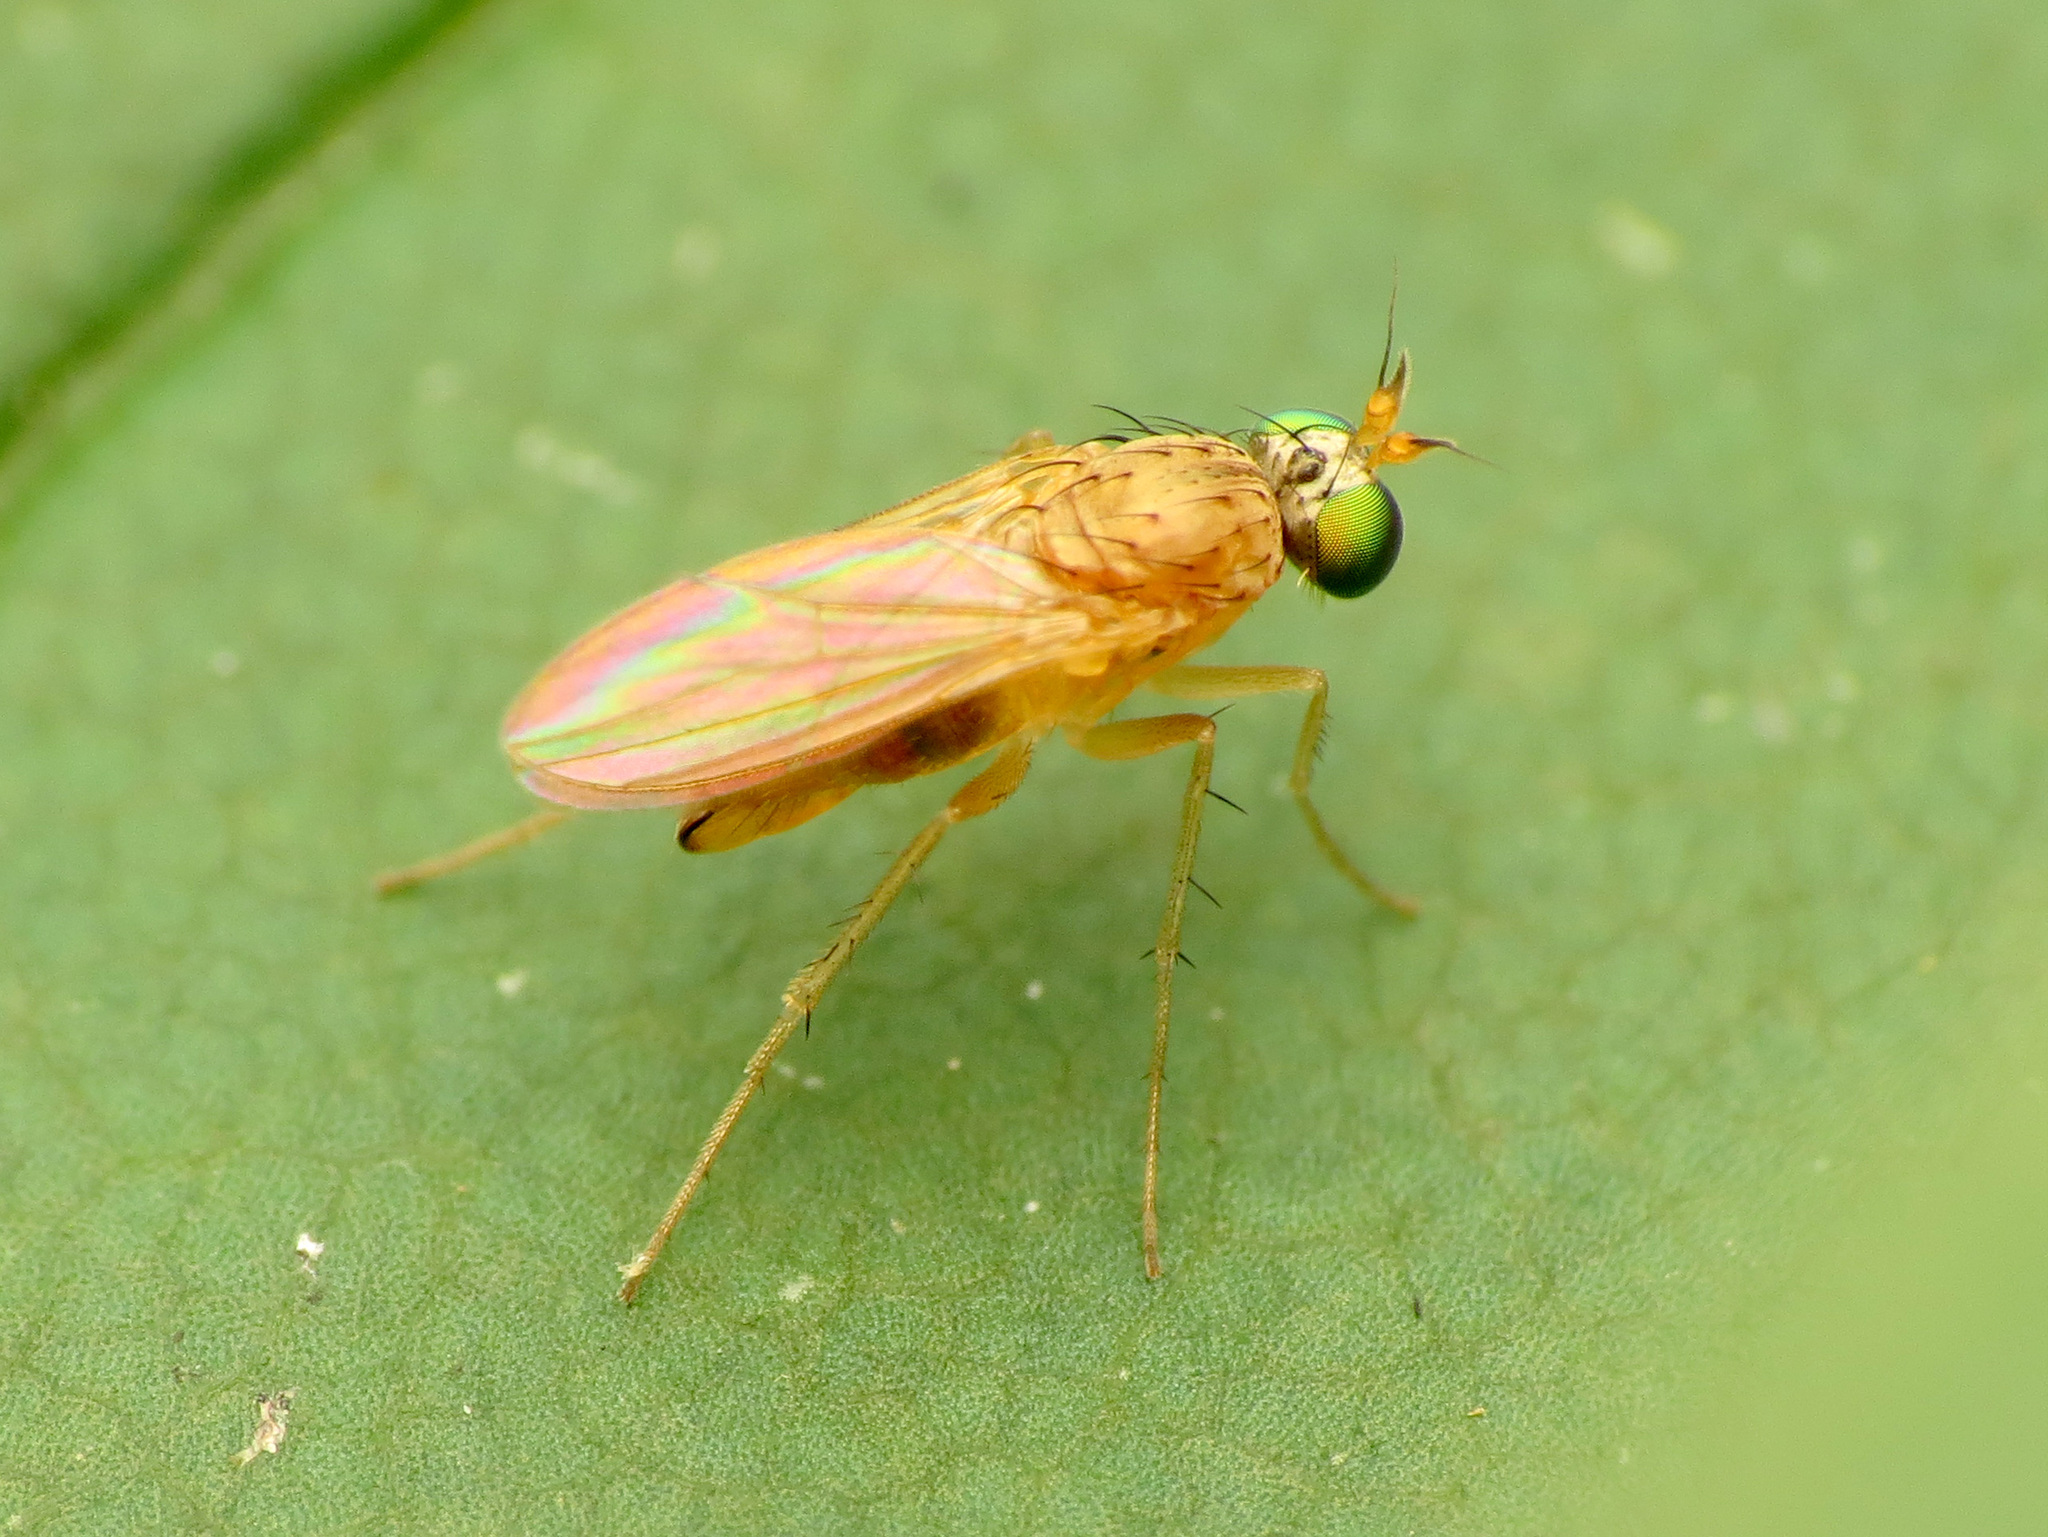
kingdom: Animalia
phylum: Arthropoda
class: Insecta
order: Diptera
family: Dolichopodidae
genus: Gymnopternus
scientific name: Gymnopternus flavus
